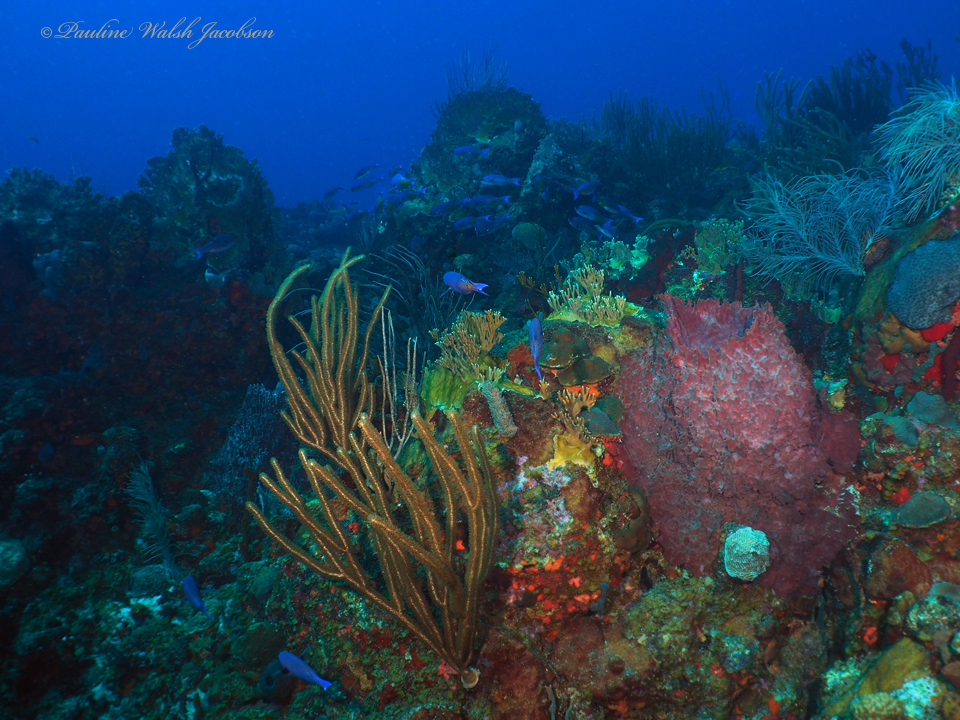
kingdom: Animalia
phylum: Chordata
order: Perciformes
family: Labridae
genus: Bodianus
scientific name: Bodianus
